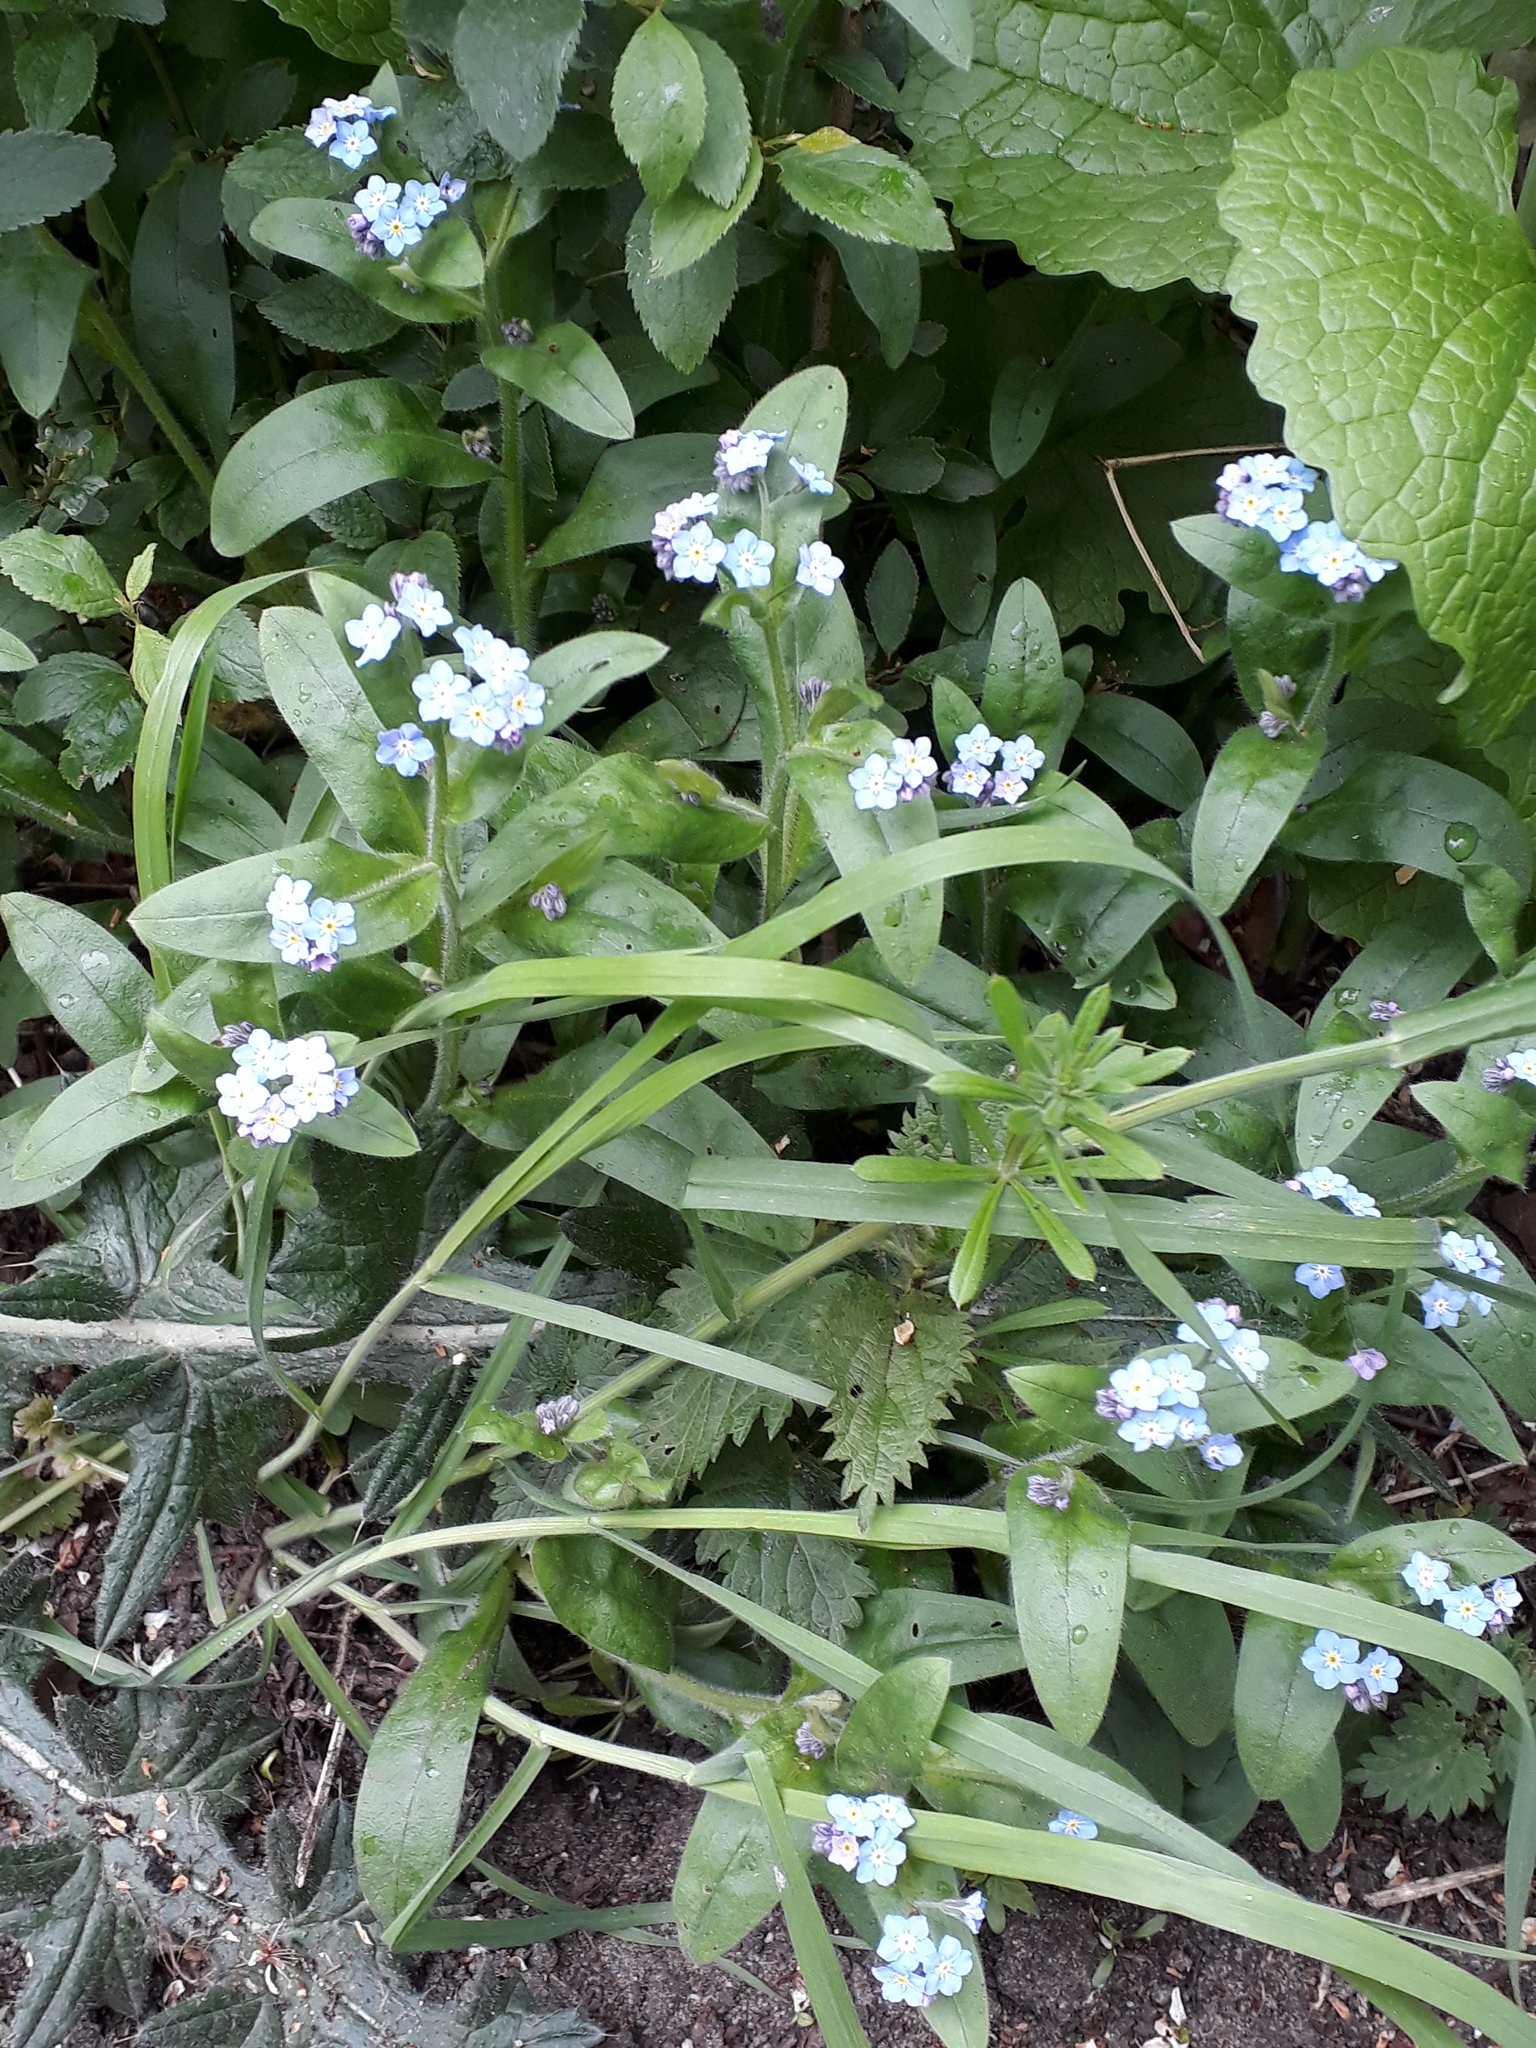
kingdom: Plantae
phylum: Tracheophyta
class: Magnoliopsida
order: Boraginales
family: Boraginaceae
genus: Myosotis
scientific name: Myosotis sylvatica
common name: Wood forget-me-not
